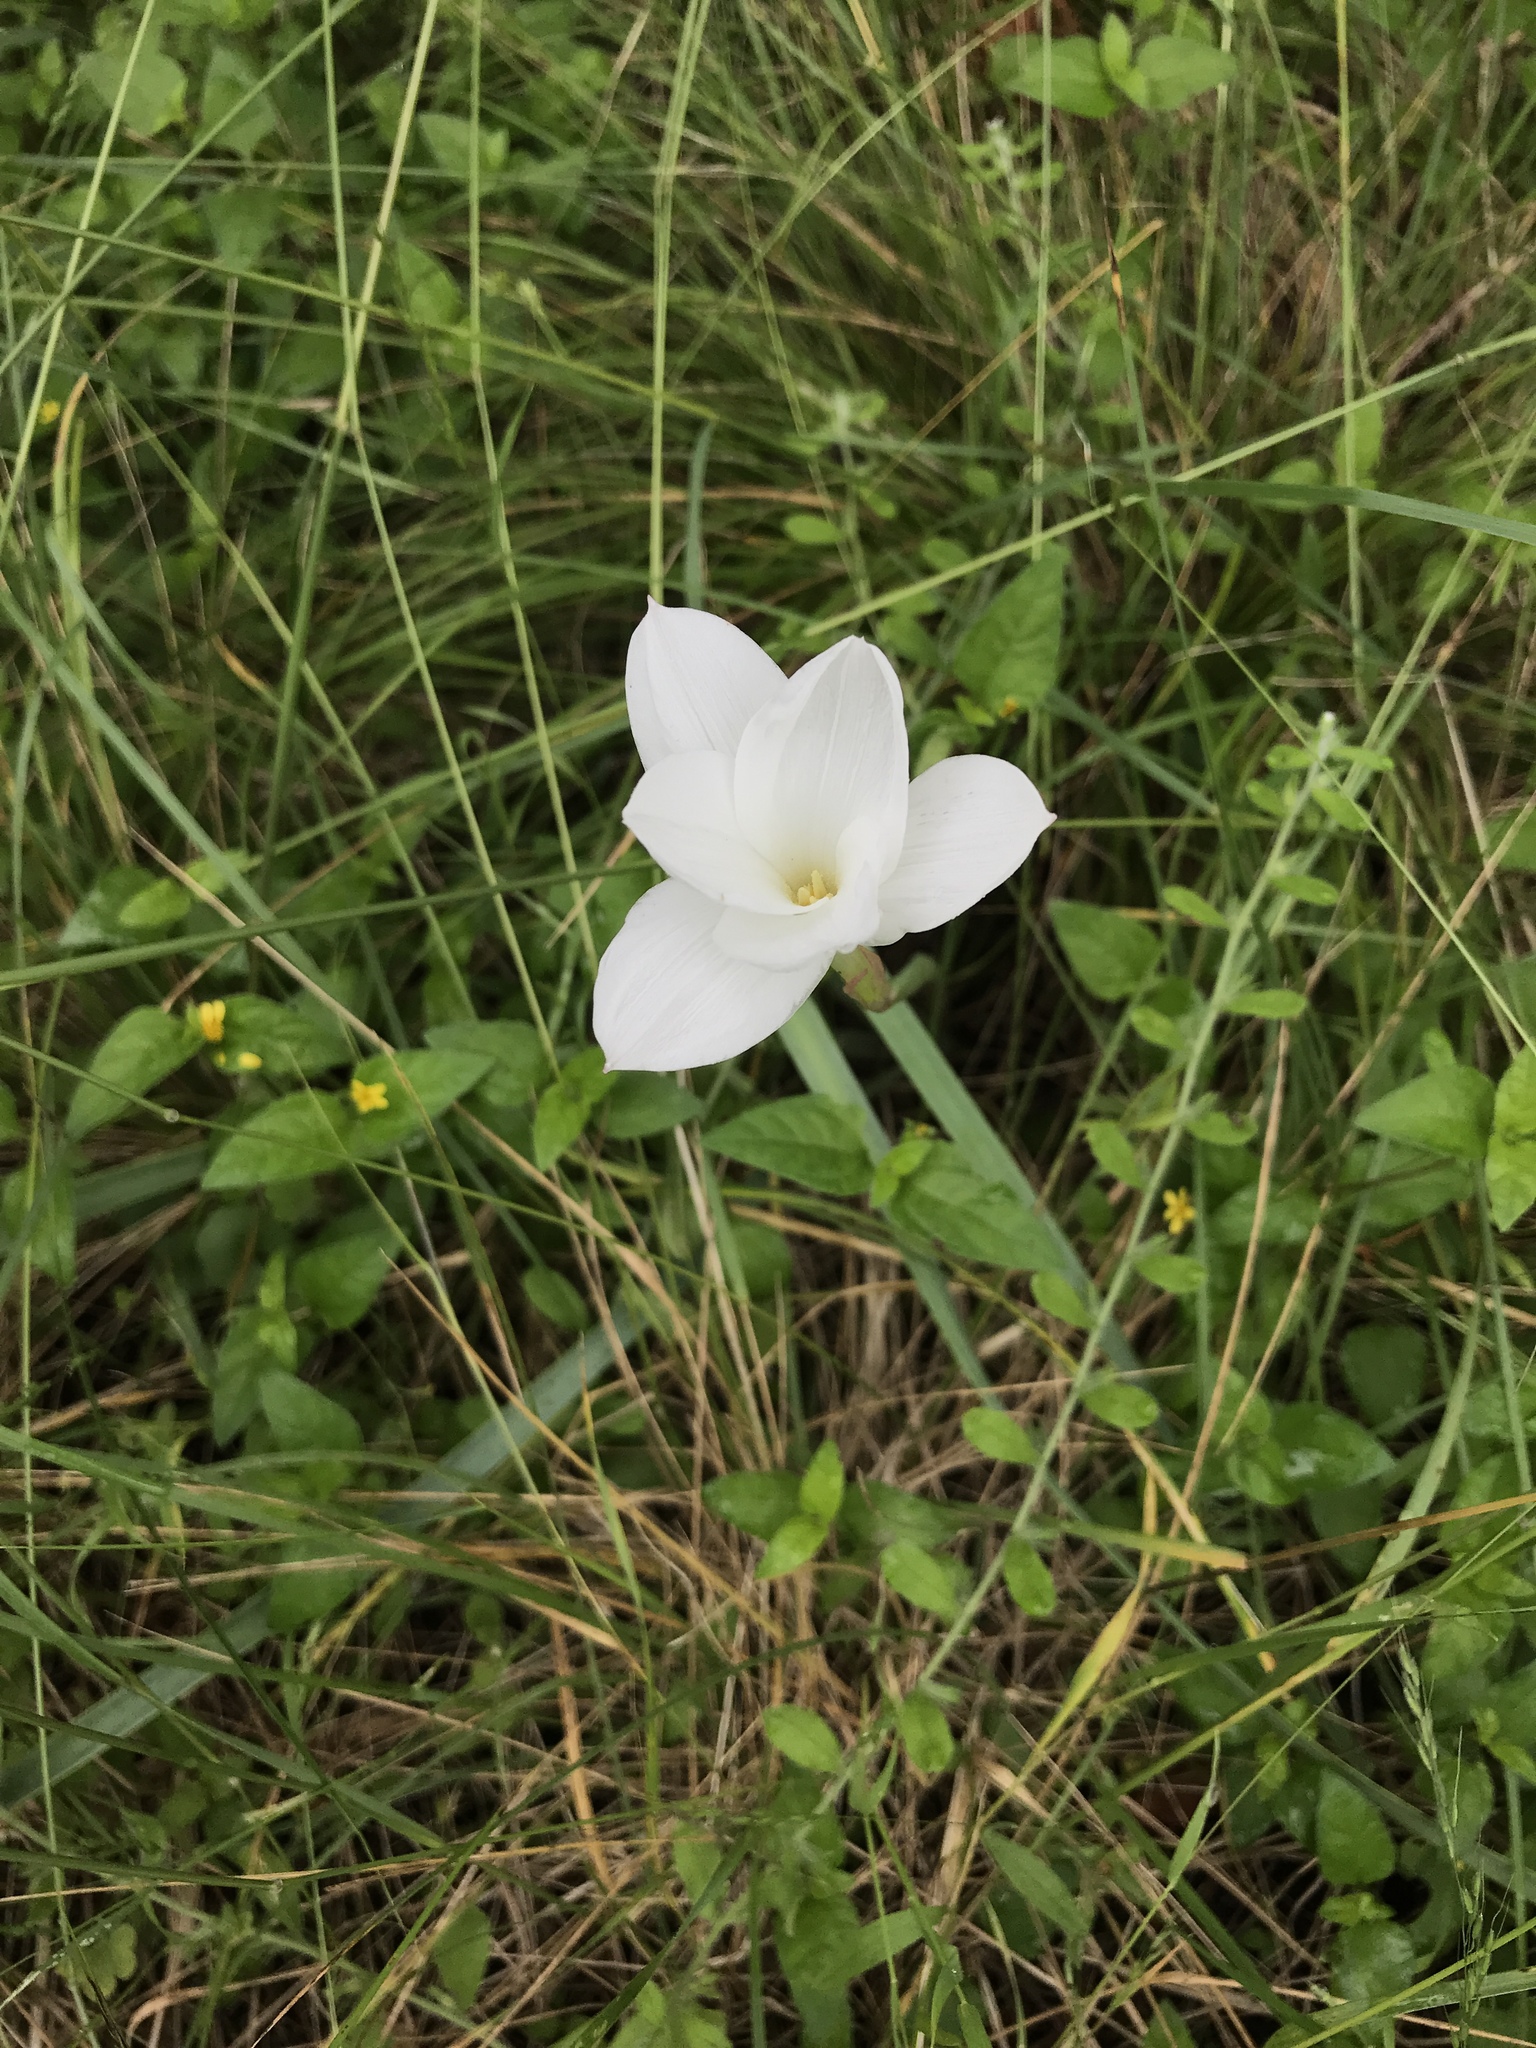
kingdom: Plantae
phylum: Tracheophyta
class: Liliopsida
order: Asparagales
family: Amaryllidaceae
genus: Zephyranthes
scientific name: Zephyranthes drummondii
